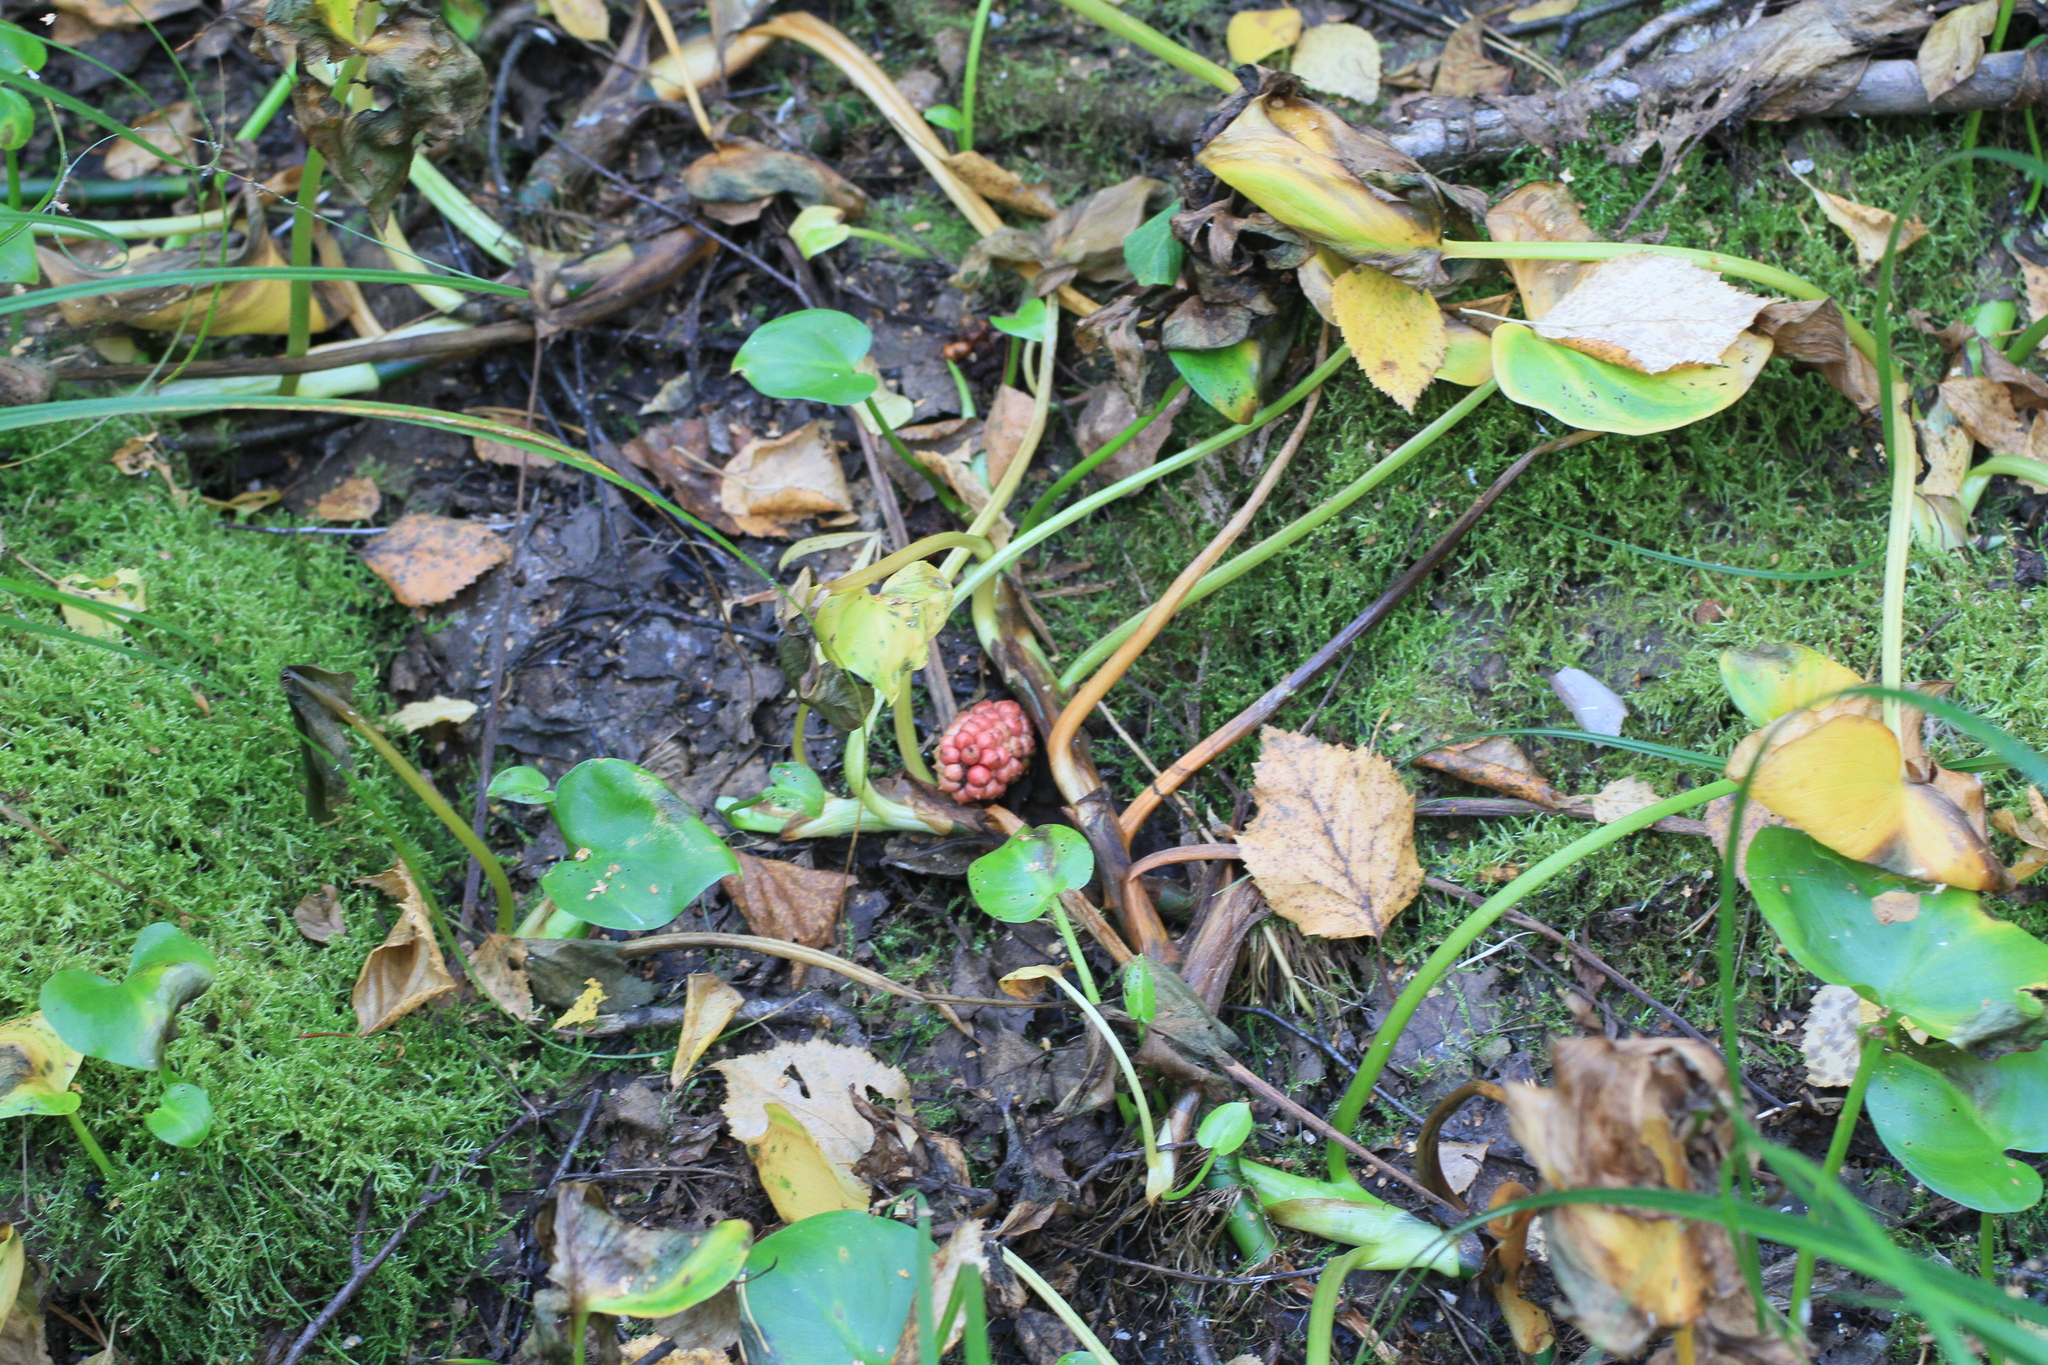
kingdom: Plantae
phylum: Tracheophyta
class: Liliopsida
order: Alismatales
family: Araceae
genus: Calla
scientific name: Calla palustris
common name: Bog arum
